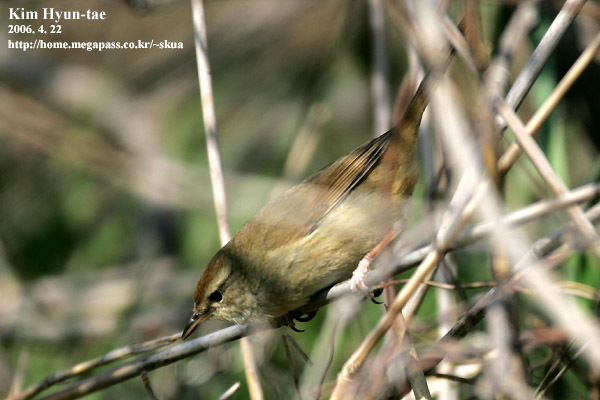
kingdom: Animalia
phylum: Chordata
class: Aves
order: Passeriformes
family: Phylloscopidae
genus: Phylloscopus
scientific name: Phylloscopus fuscatus
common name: Dusky warbler
